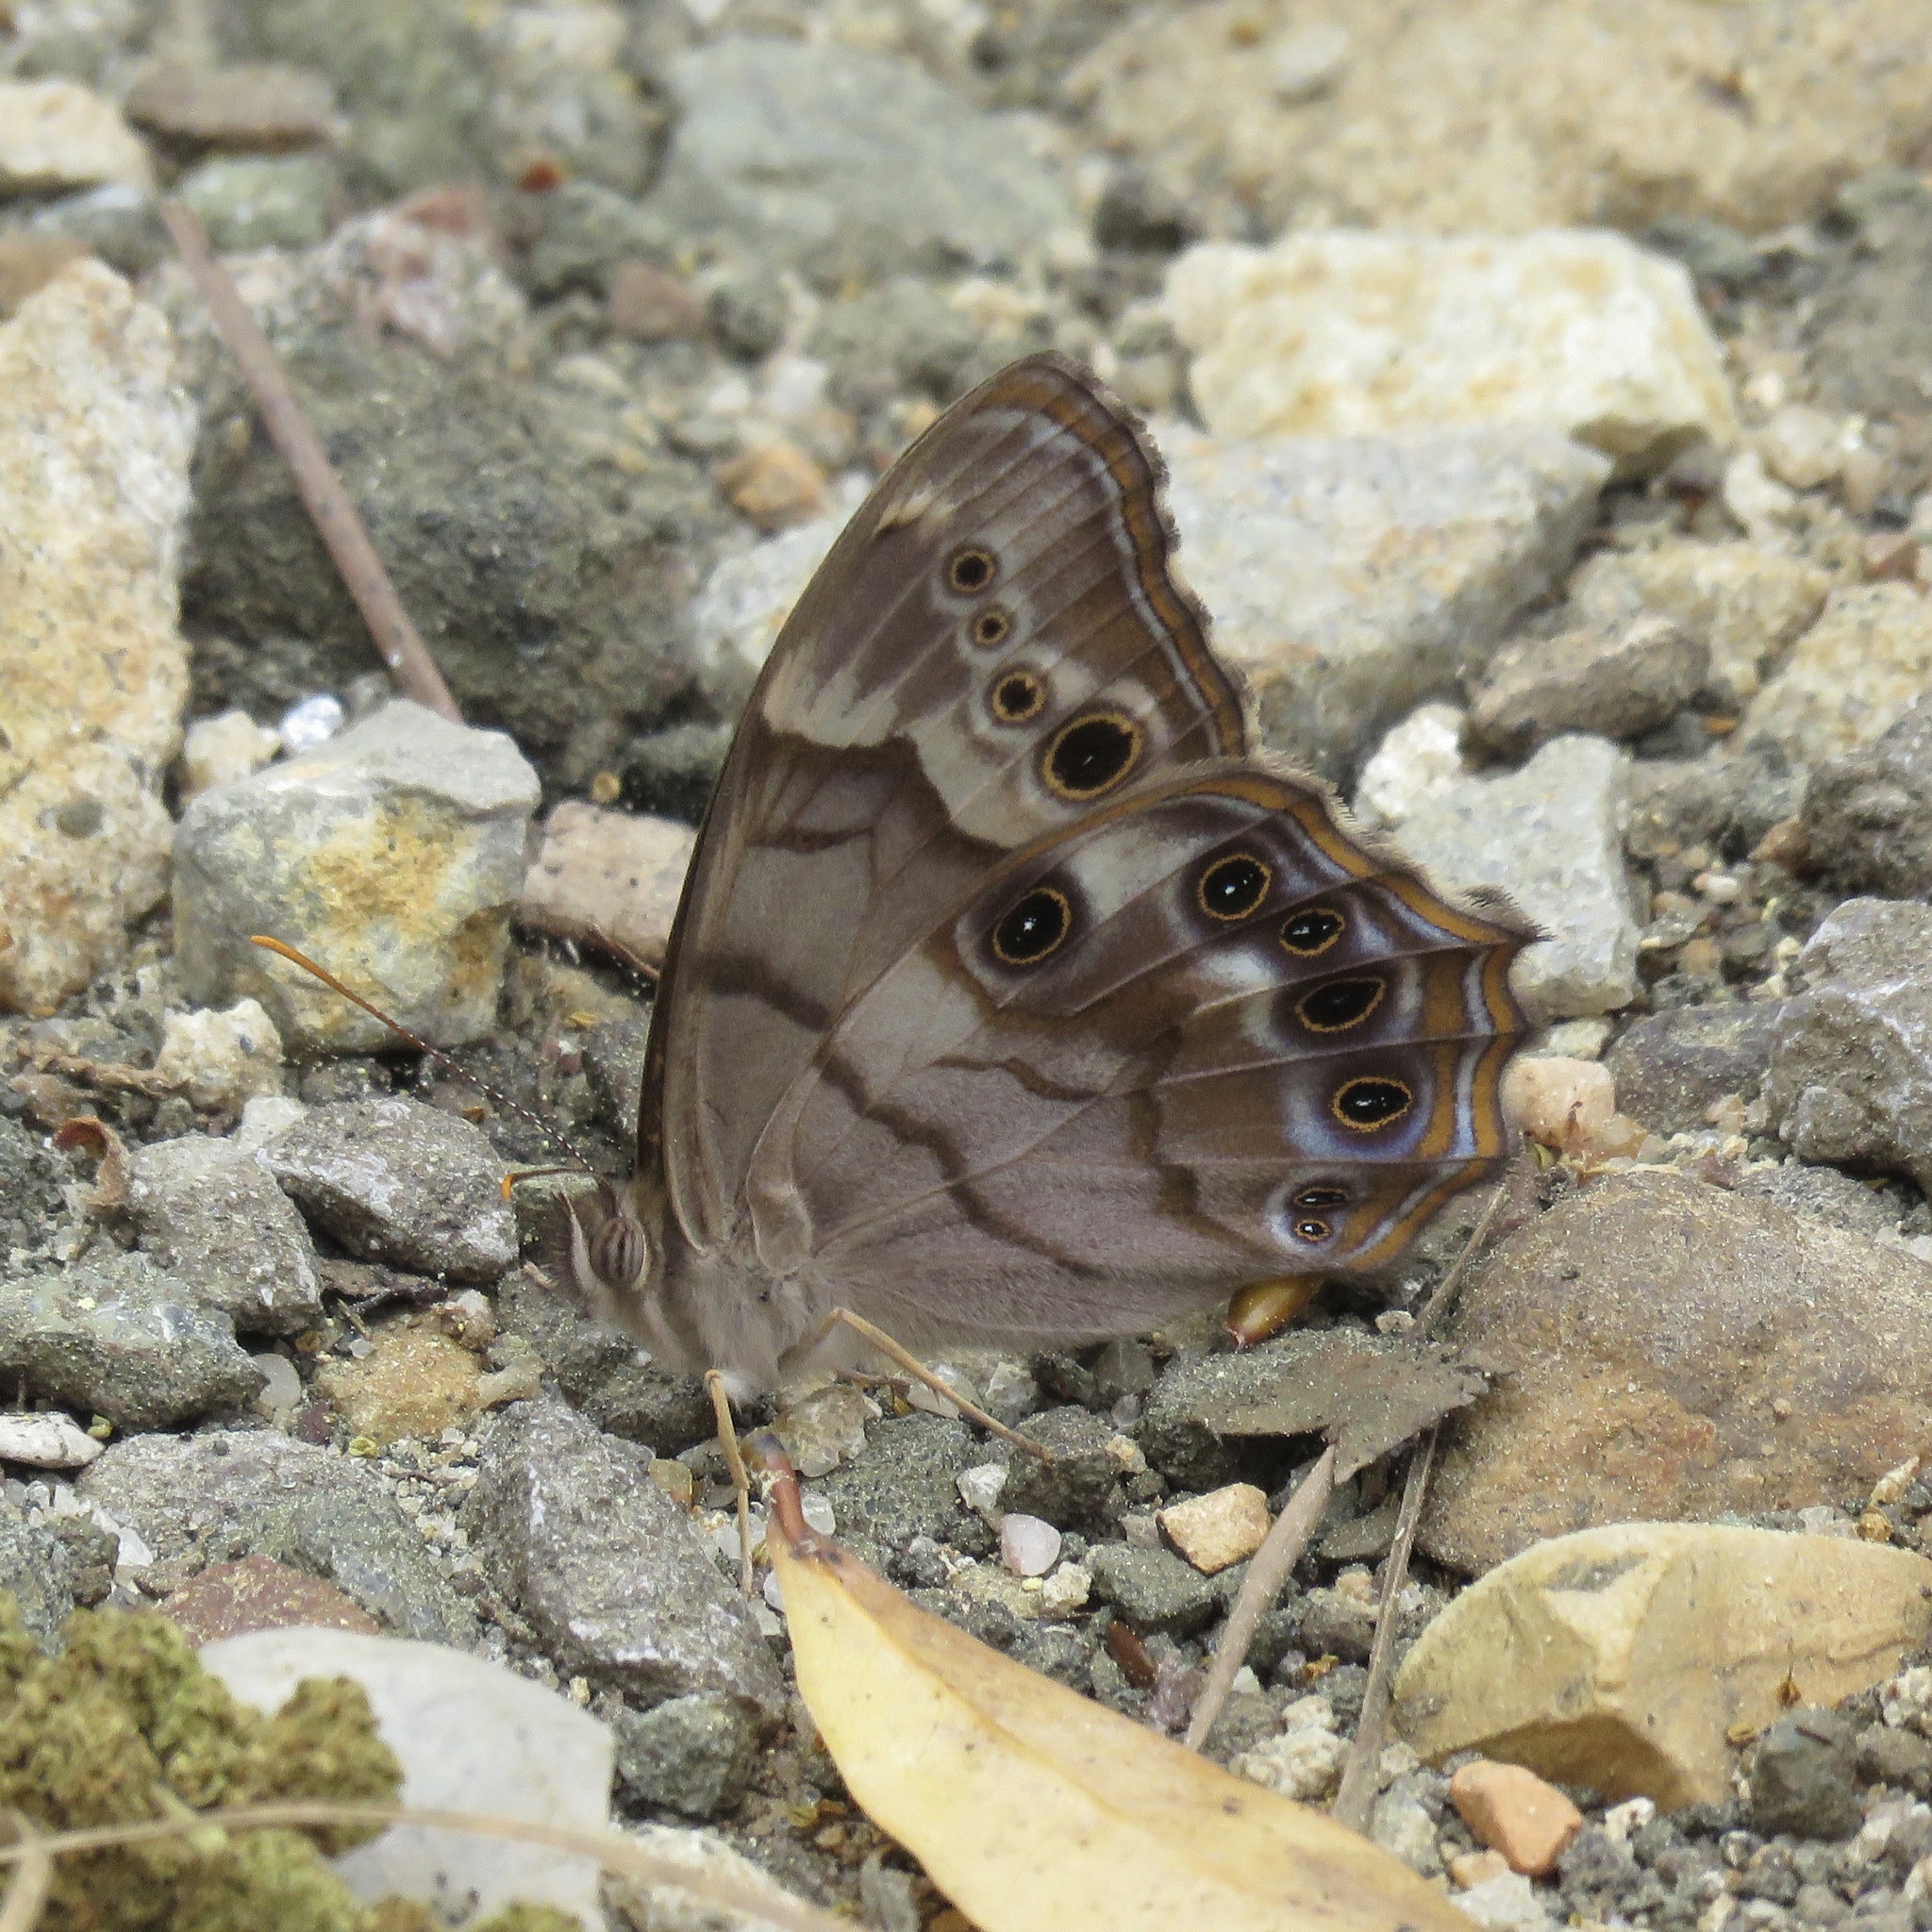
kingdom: Animalia
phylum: Arthropoda
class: Insecta
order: Lepidoptera
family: Nymphalidae
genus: Enodia
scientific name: Enodia portlandia
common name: Southern pearly-eye
